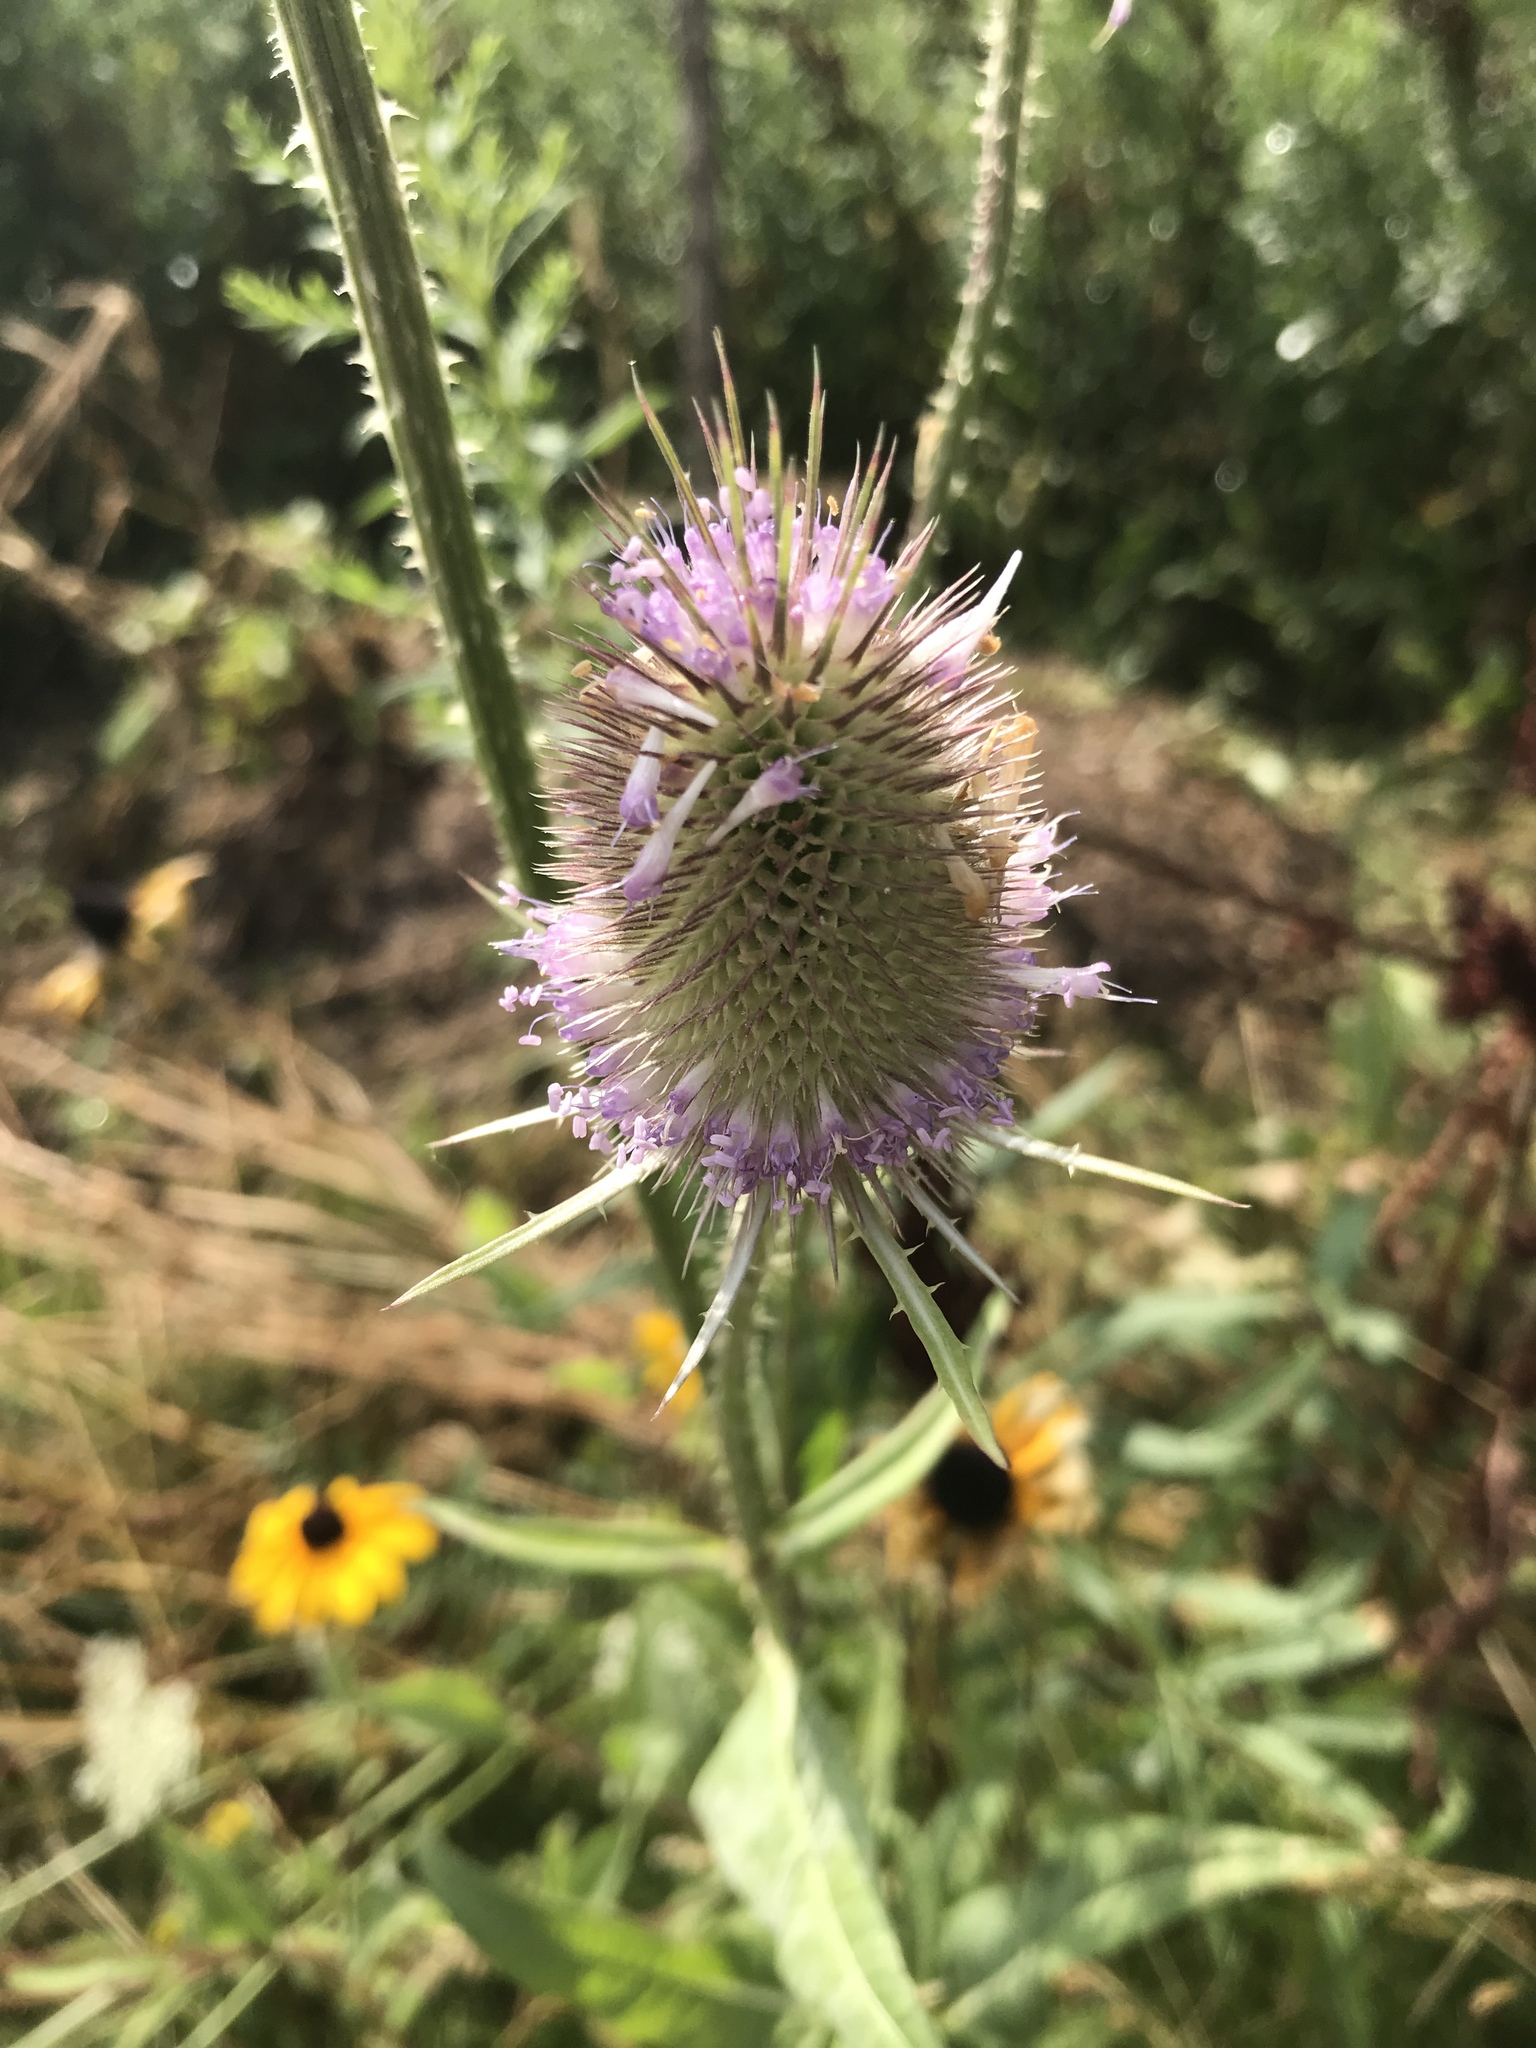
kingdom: Plantae
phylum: Tracheophyta
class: Magnoliopsida
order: Dipsacales
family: Caprifoliaceae
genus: Dipsacus
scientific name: Dipsacus fullonum
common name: Teasel
